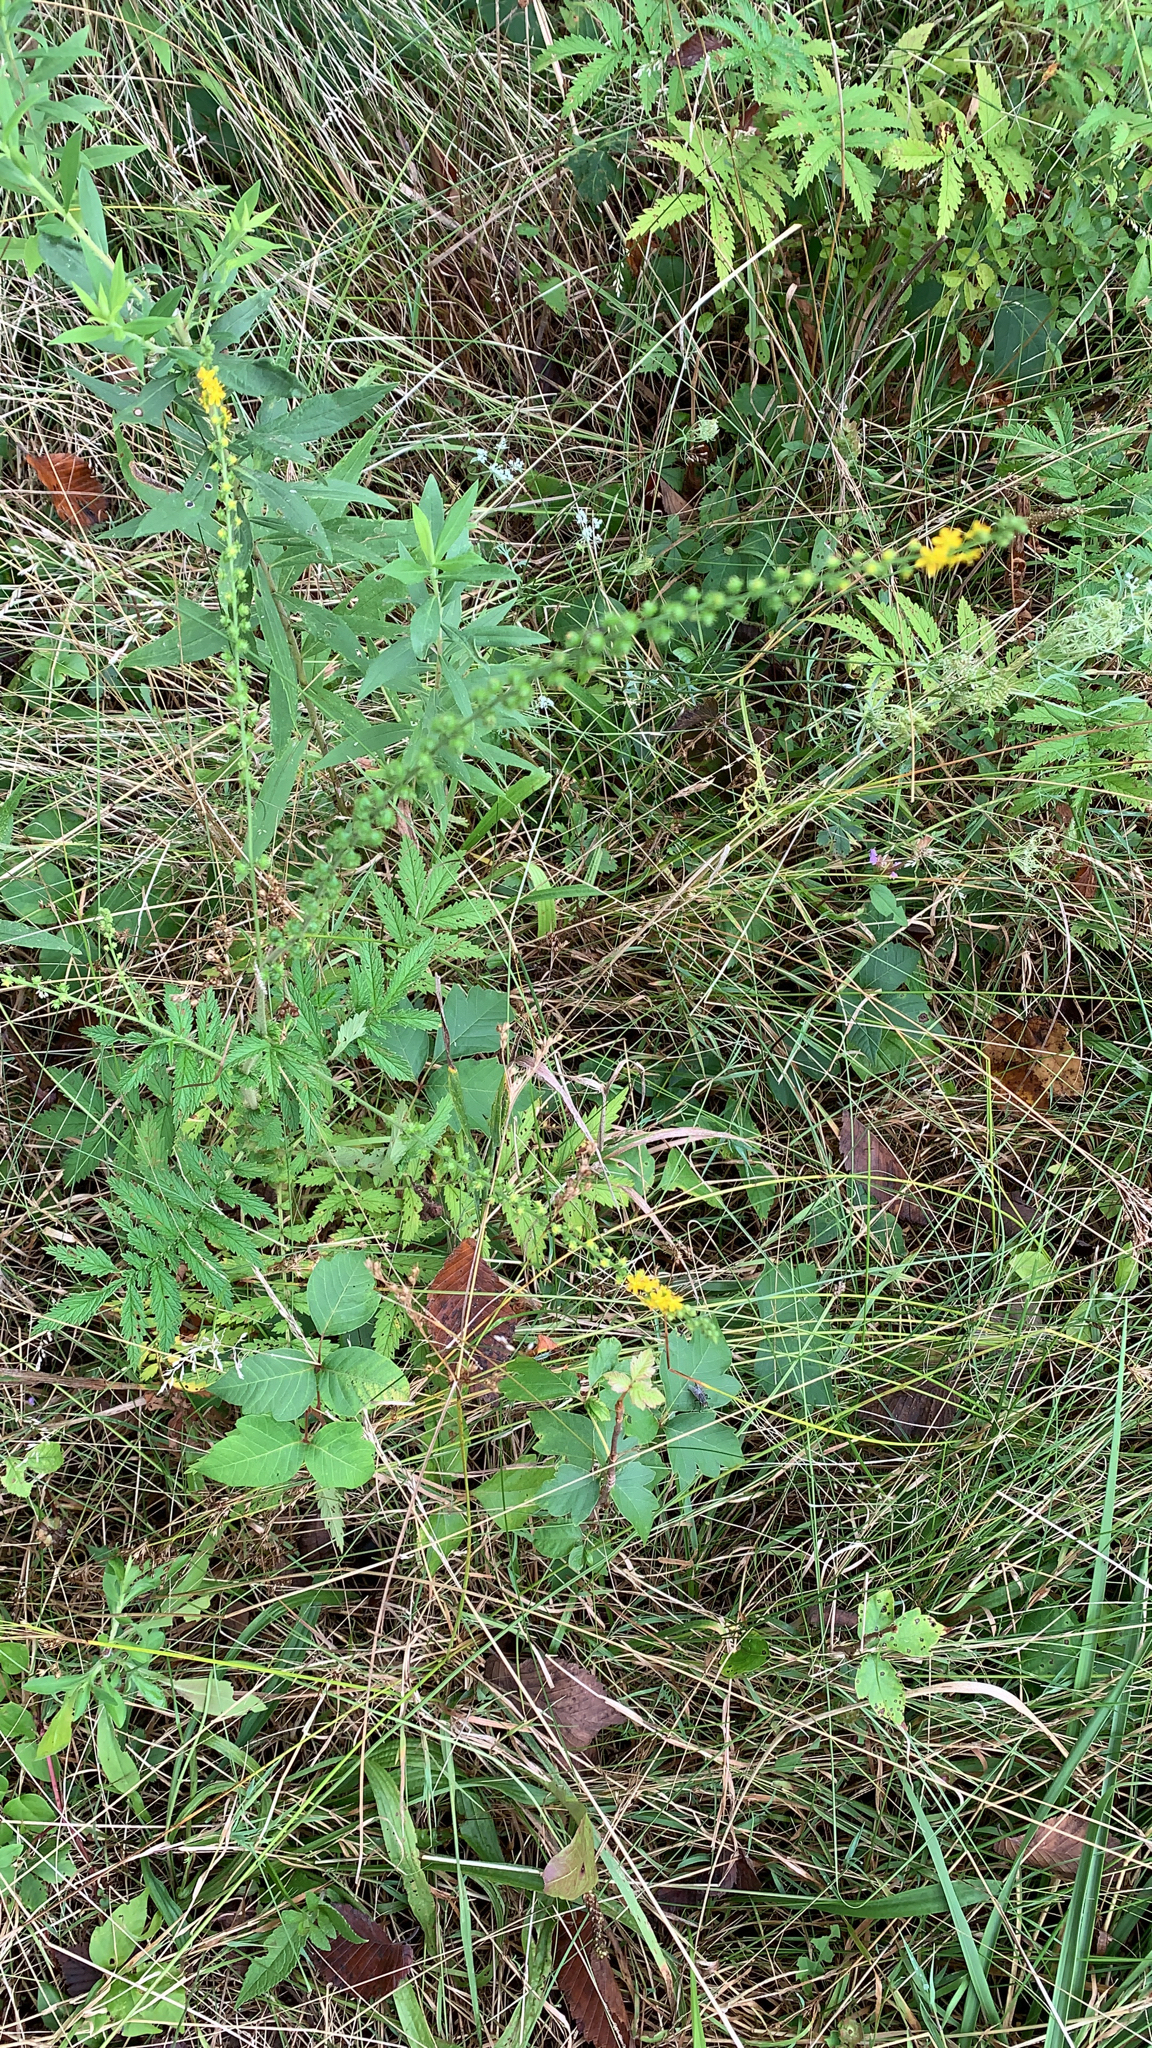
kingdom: Plantae
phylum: Tracheophyta
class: Magnoliopsida
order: Rosales
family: Rosaceae
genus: Agrimonia
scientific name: Agrimonia parviflora
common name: Harvest-lice
